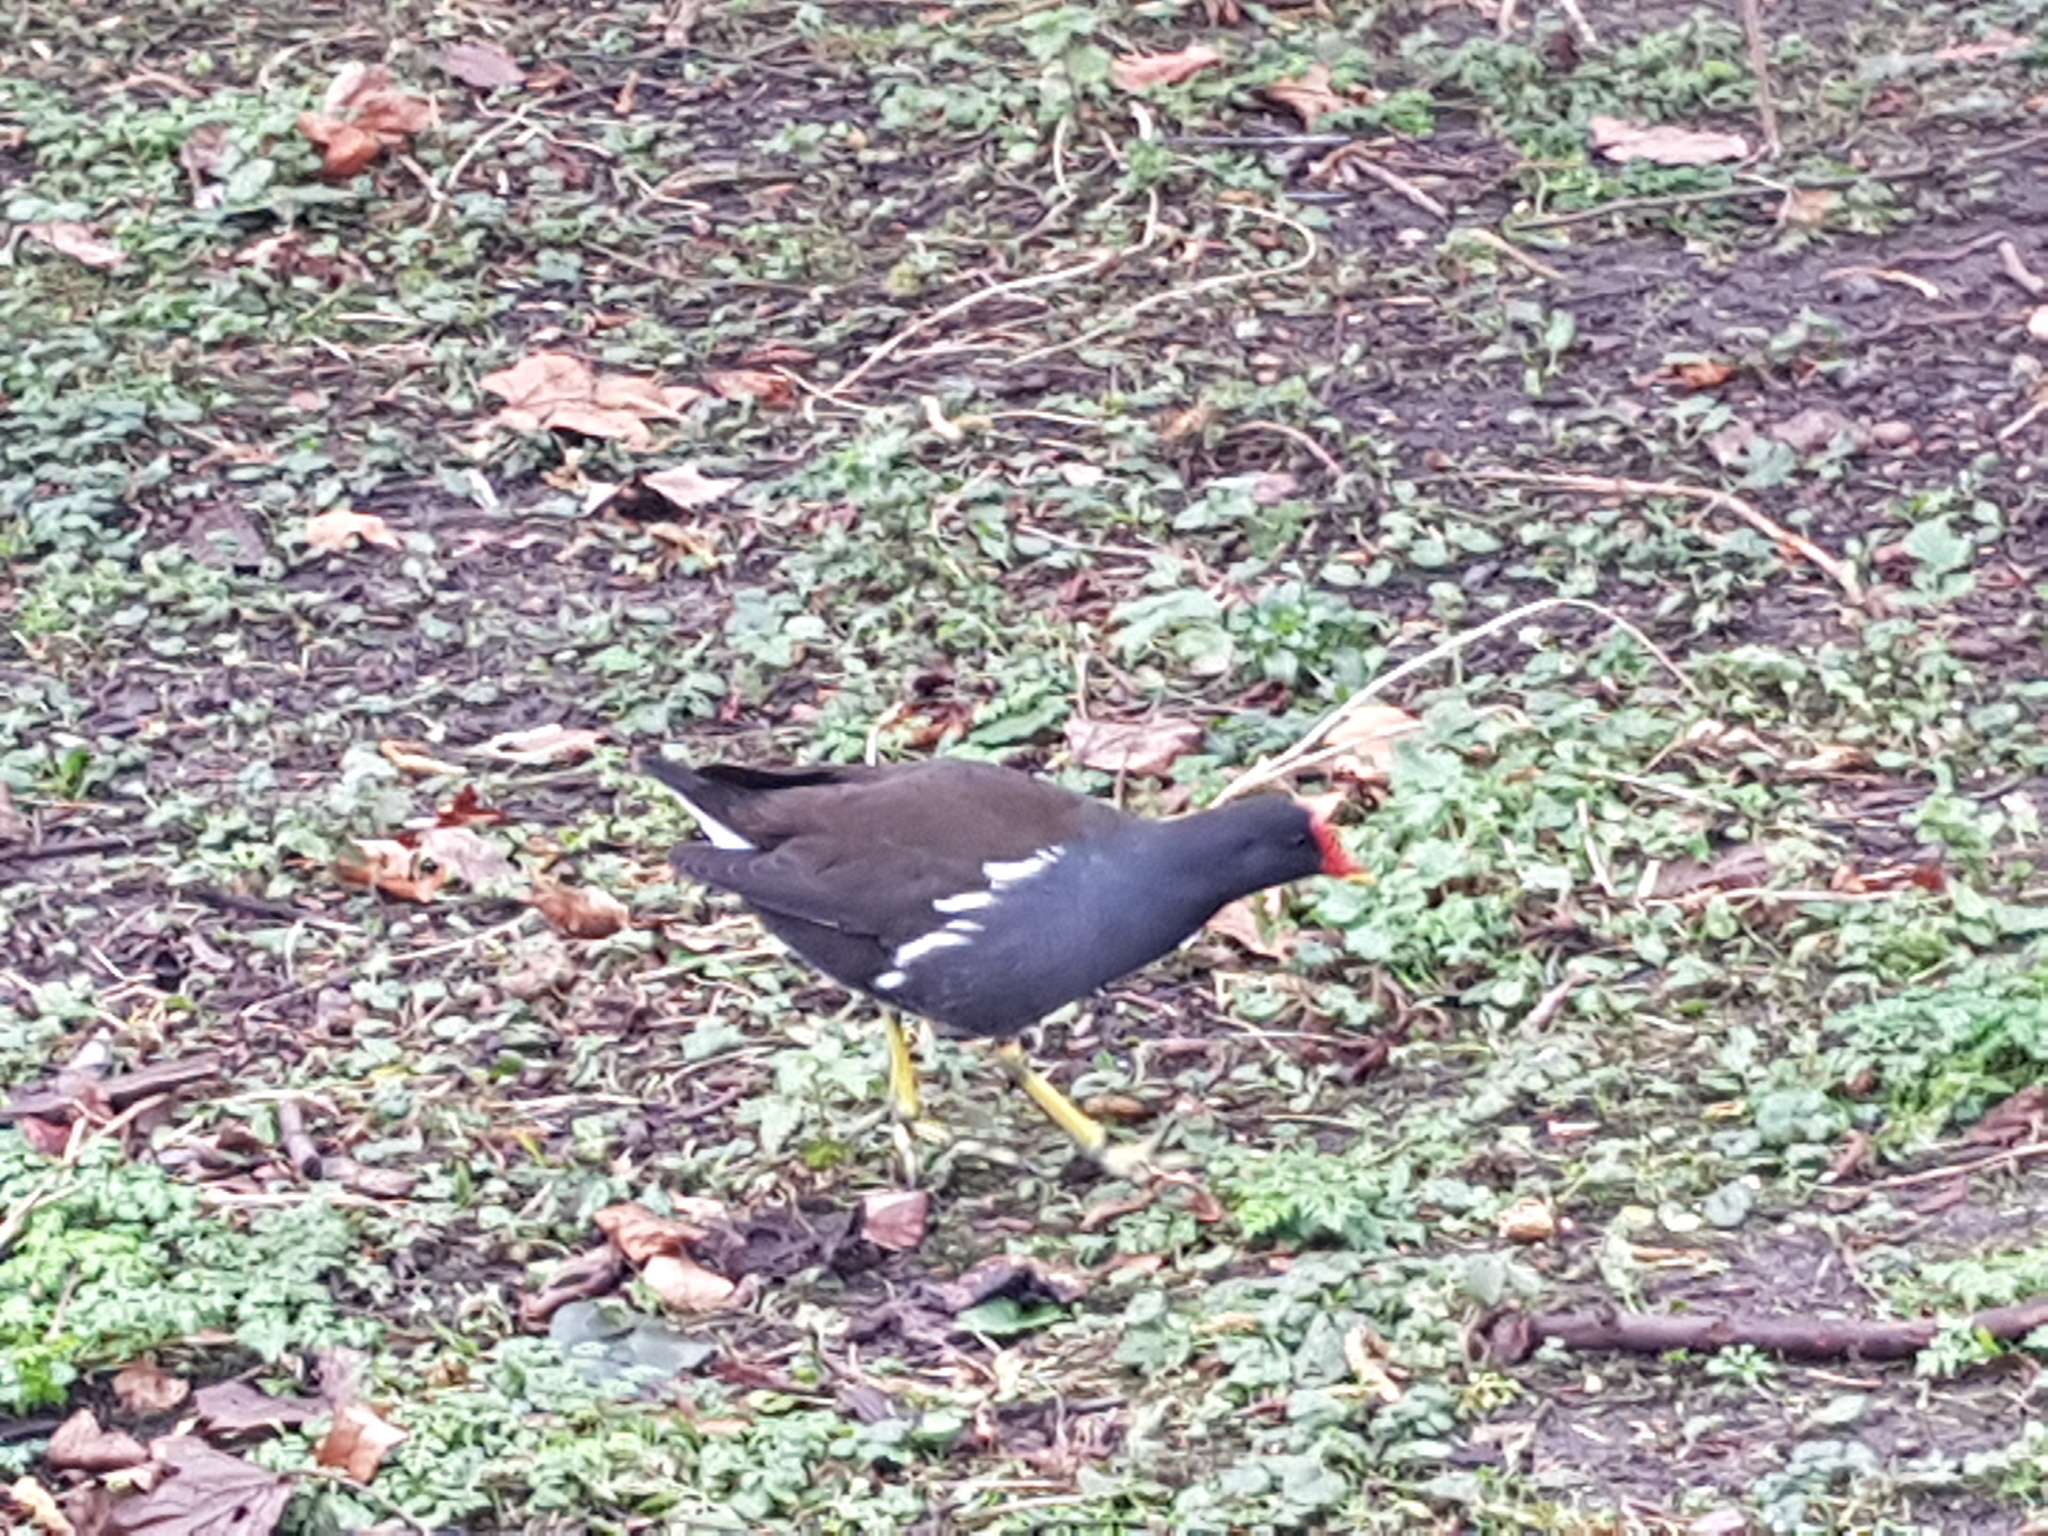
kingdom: Animalia
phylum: Chordata
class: Aves
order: Gruiformes
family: Rallidae
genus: Gallinula
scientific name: Gallinula chloropus
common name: Common moorhen
